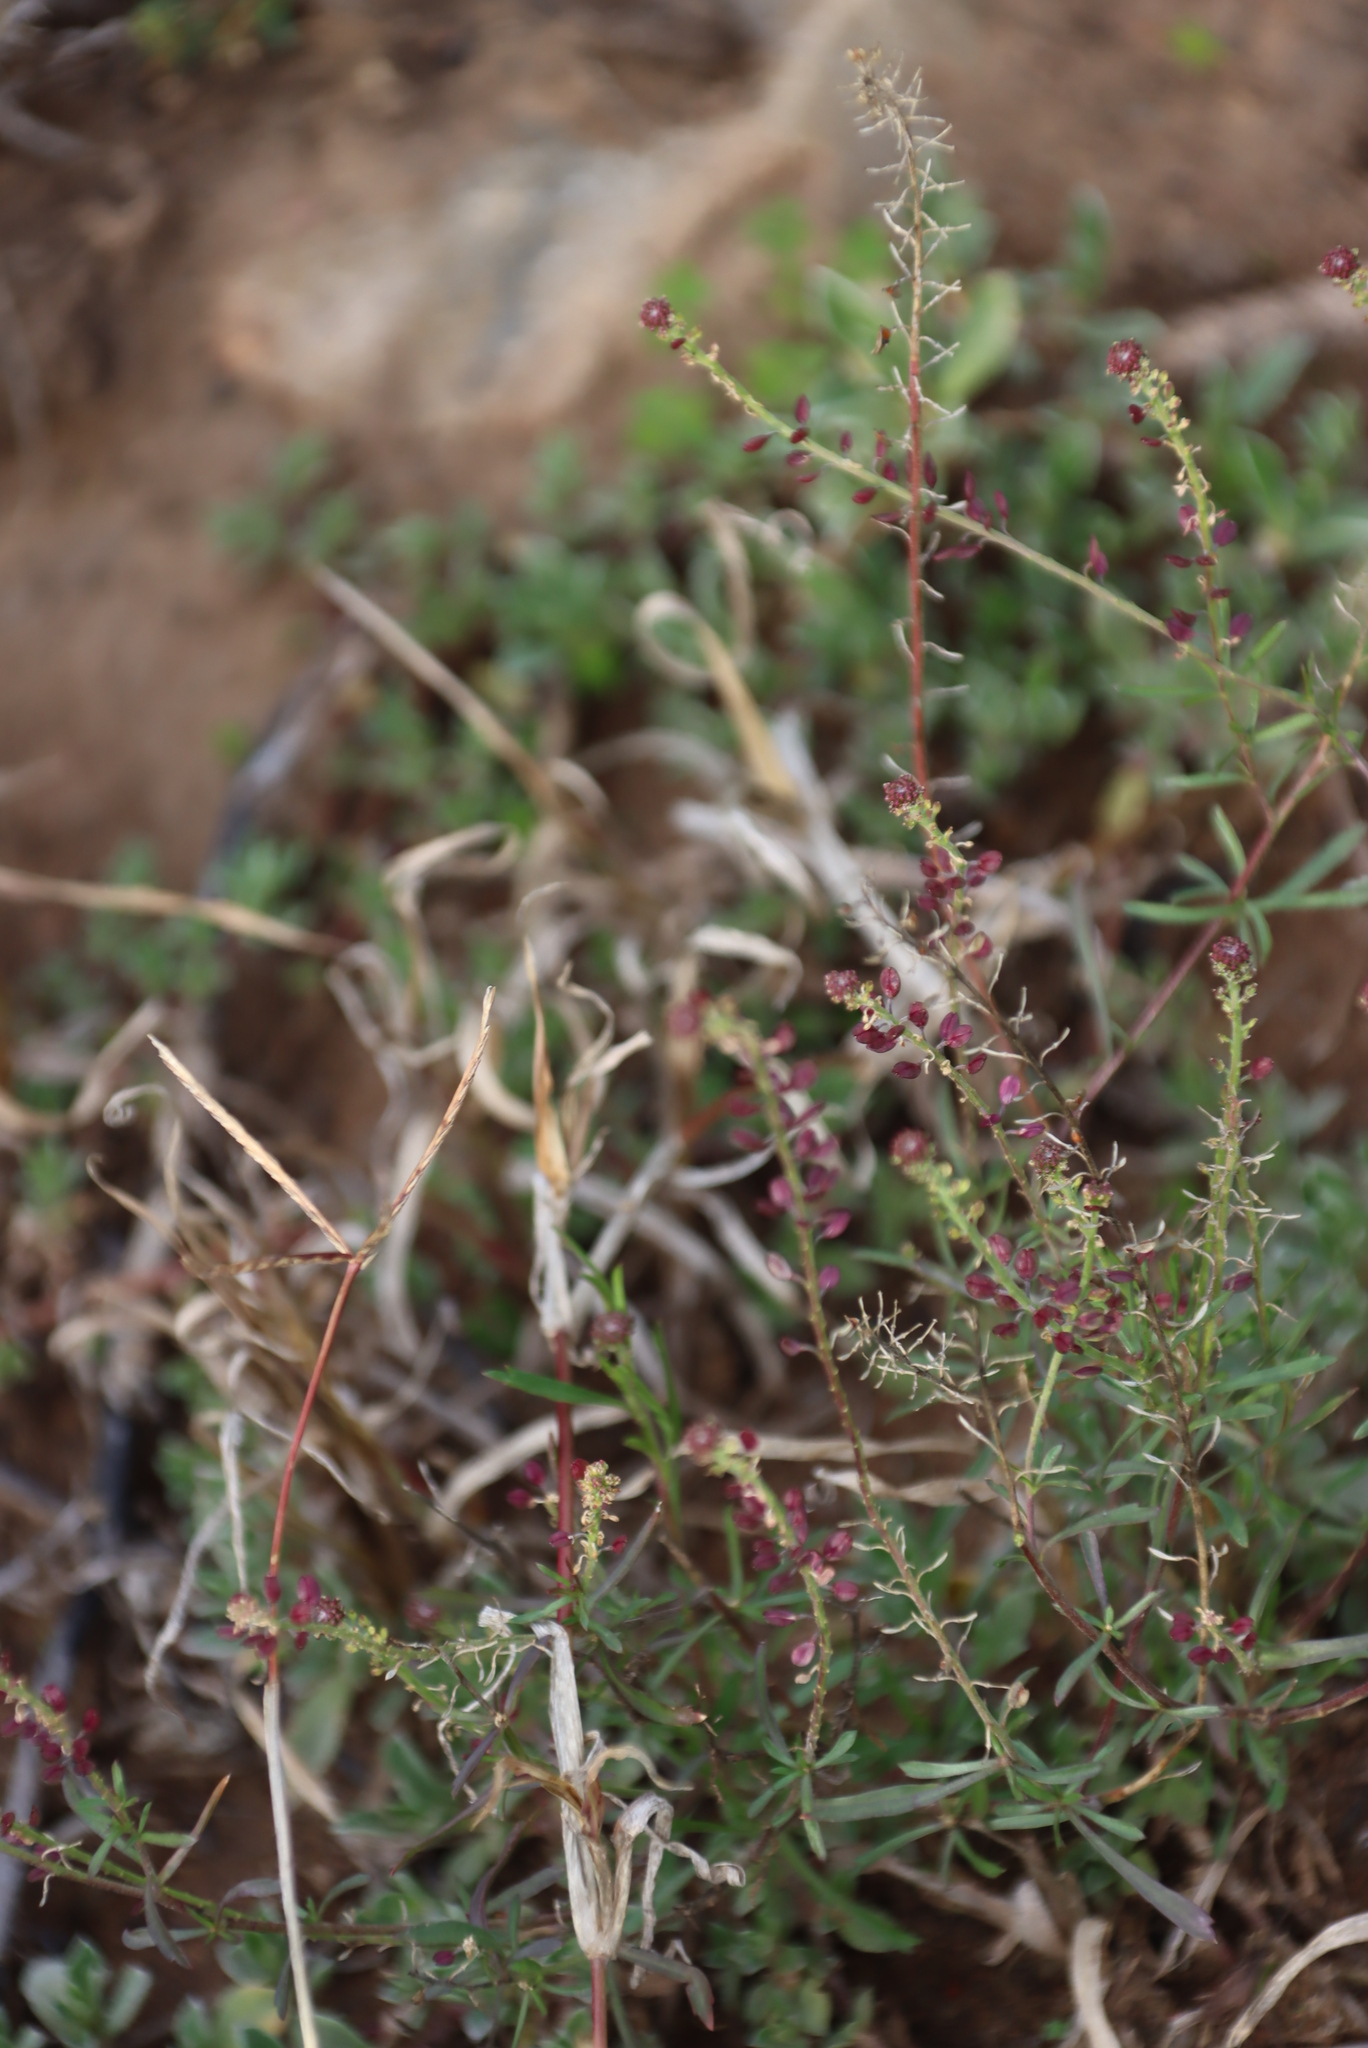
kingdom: Plantae
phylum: Tracheophyta
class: Magnoliopsida
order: Brassicales
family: Brassicaceae
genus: Lepidium
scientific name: Lepidium africanum
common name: African pepperwort
